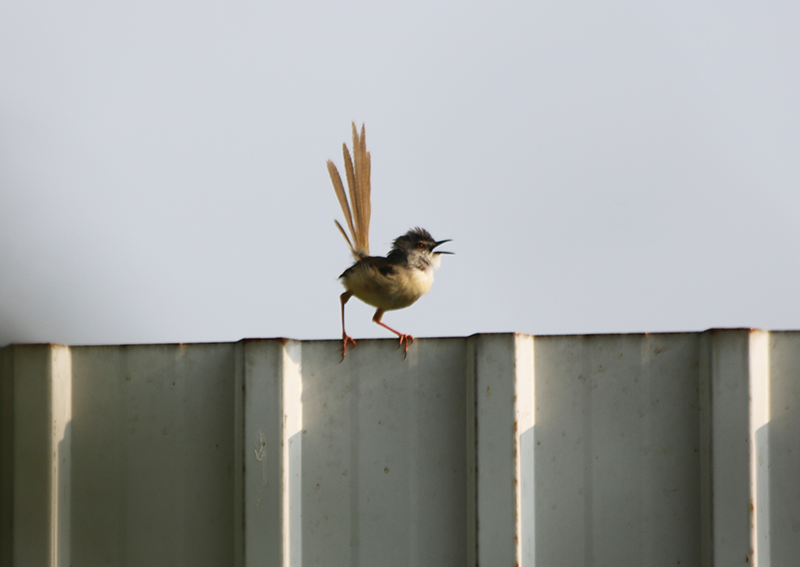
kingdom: Animalia
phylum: Chordata
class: Aves
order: Passeriformes
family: Cisticolidae
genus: Prinia
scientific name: Prinia flaviventris
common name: Yellow-bellied prinia
